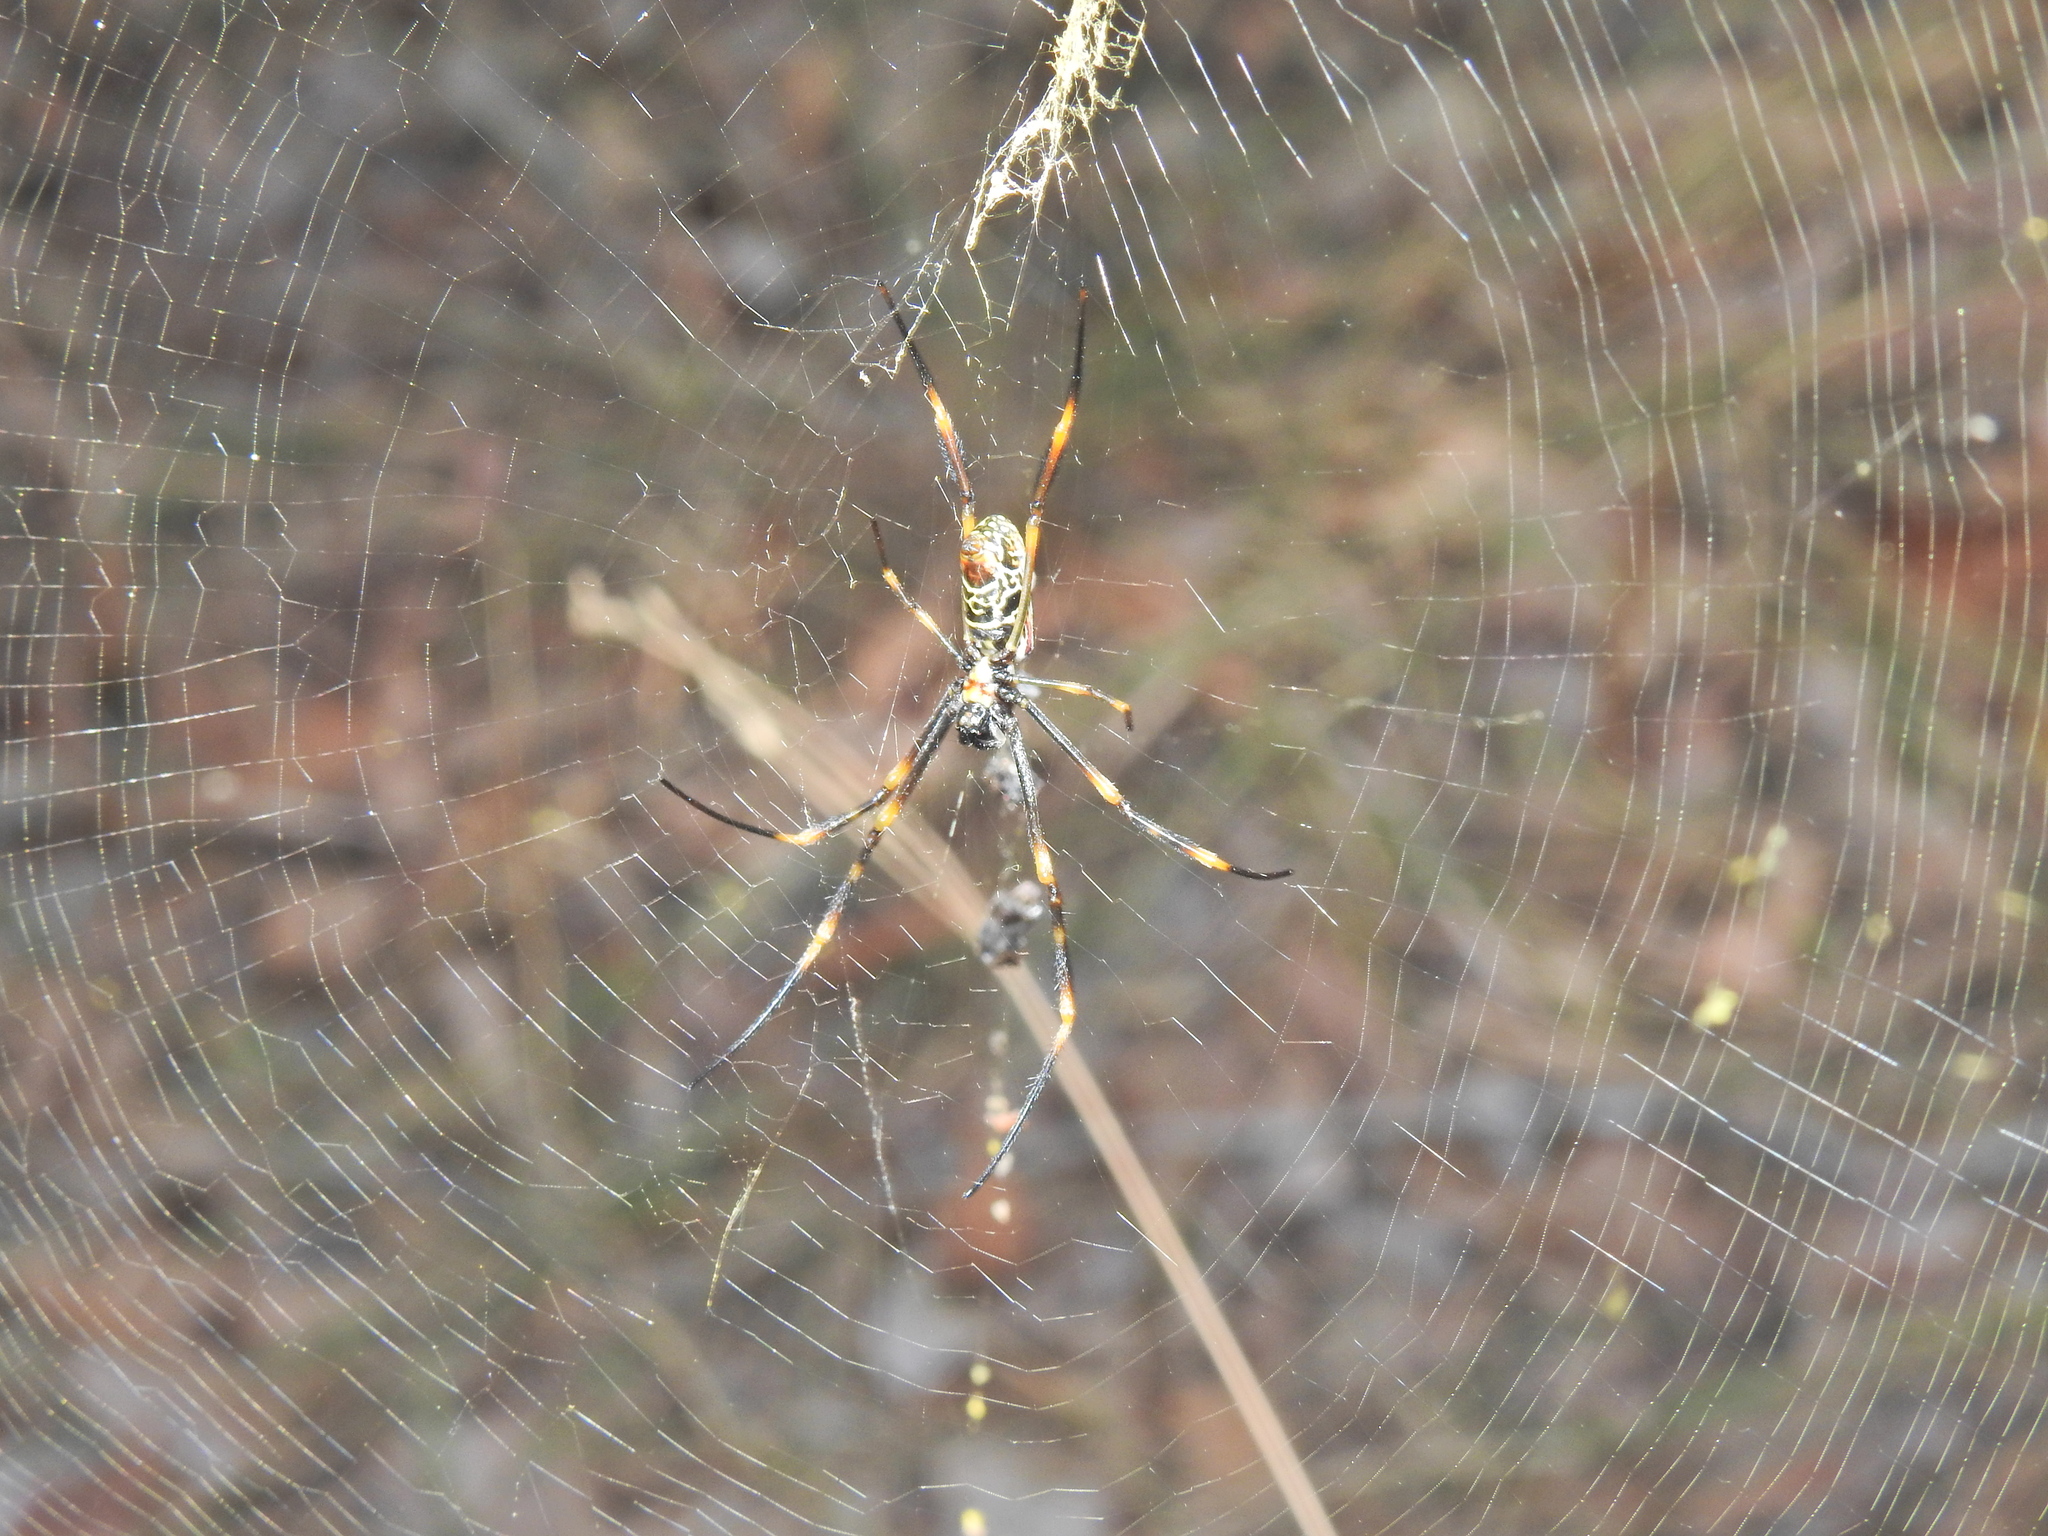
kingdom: Animalia
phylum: Arthropoda
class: Arachnida
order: Araneae
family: Araneidae
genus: Trichonephila
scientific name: Trichonephila plumipes
